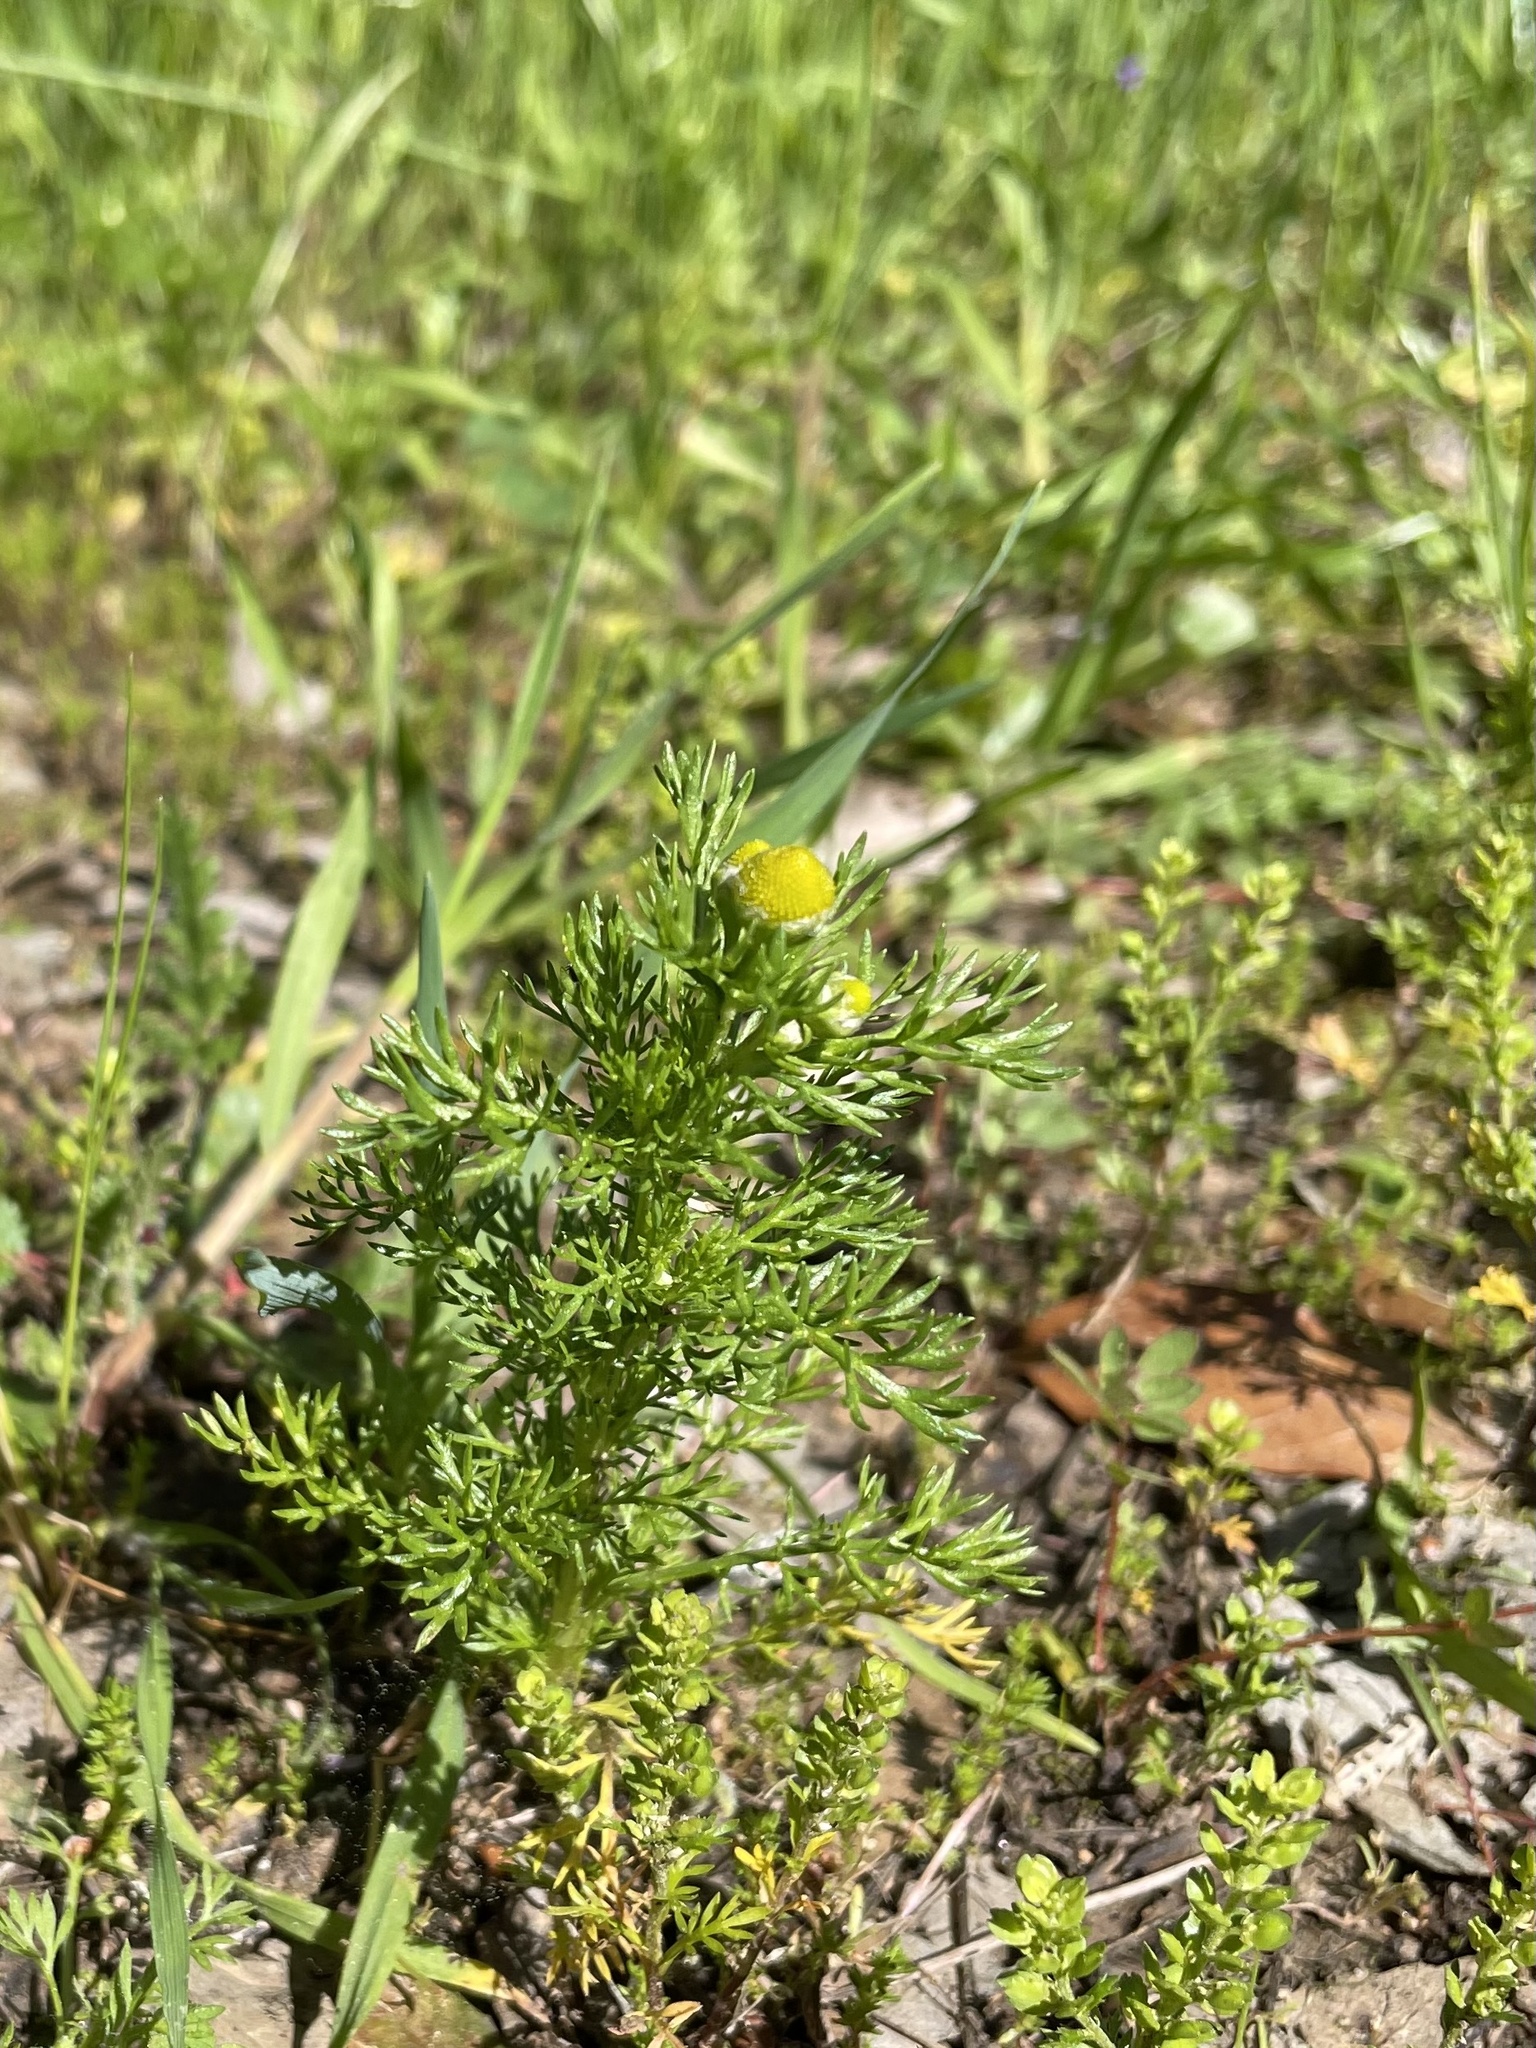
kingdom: Plantae
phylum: Tracheophyta
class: Magnoliopsida
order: Asterales
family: Asteraceae
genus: Matricaria
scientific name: Matricaria discoidea
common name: Disc mayweed
